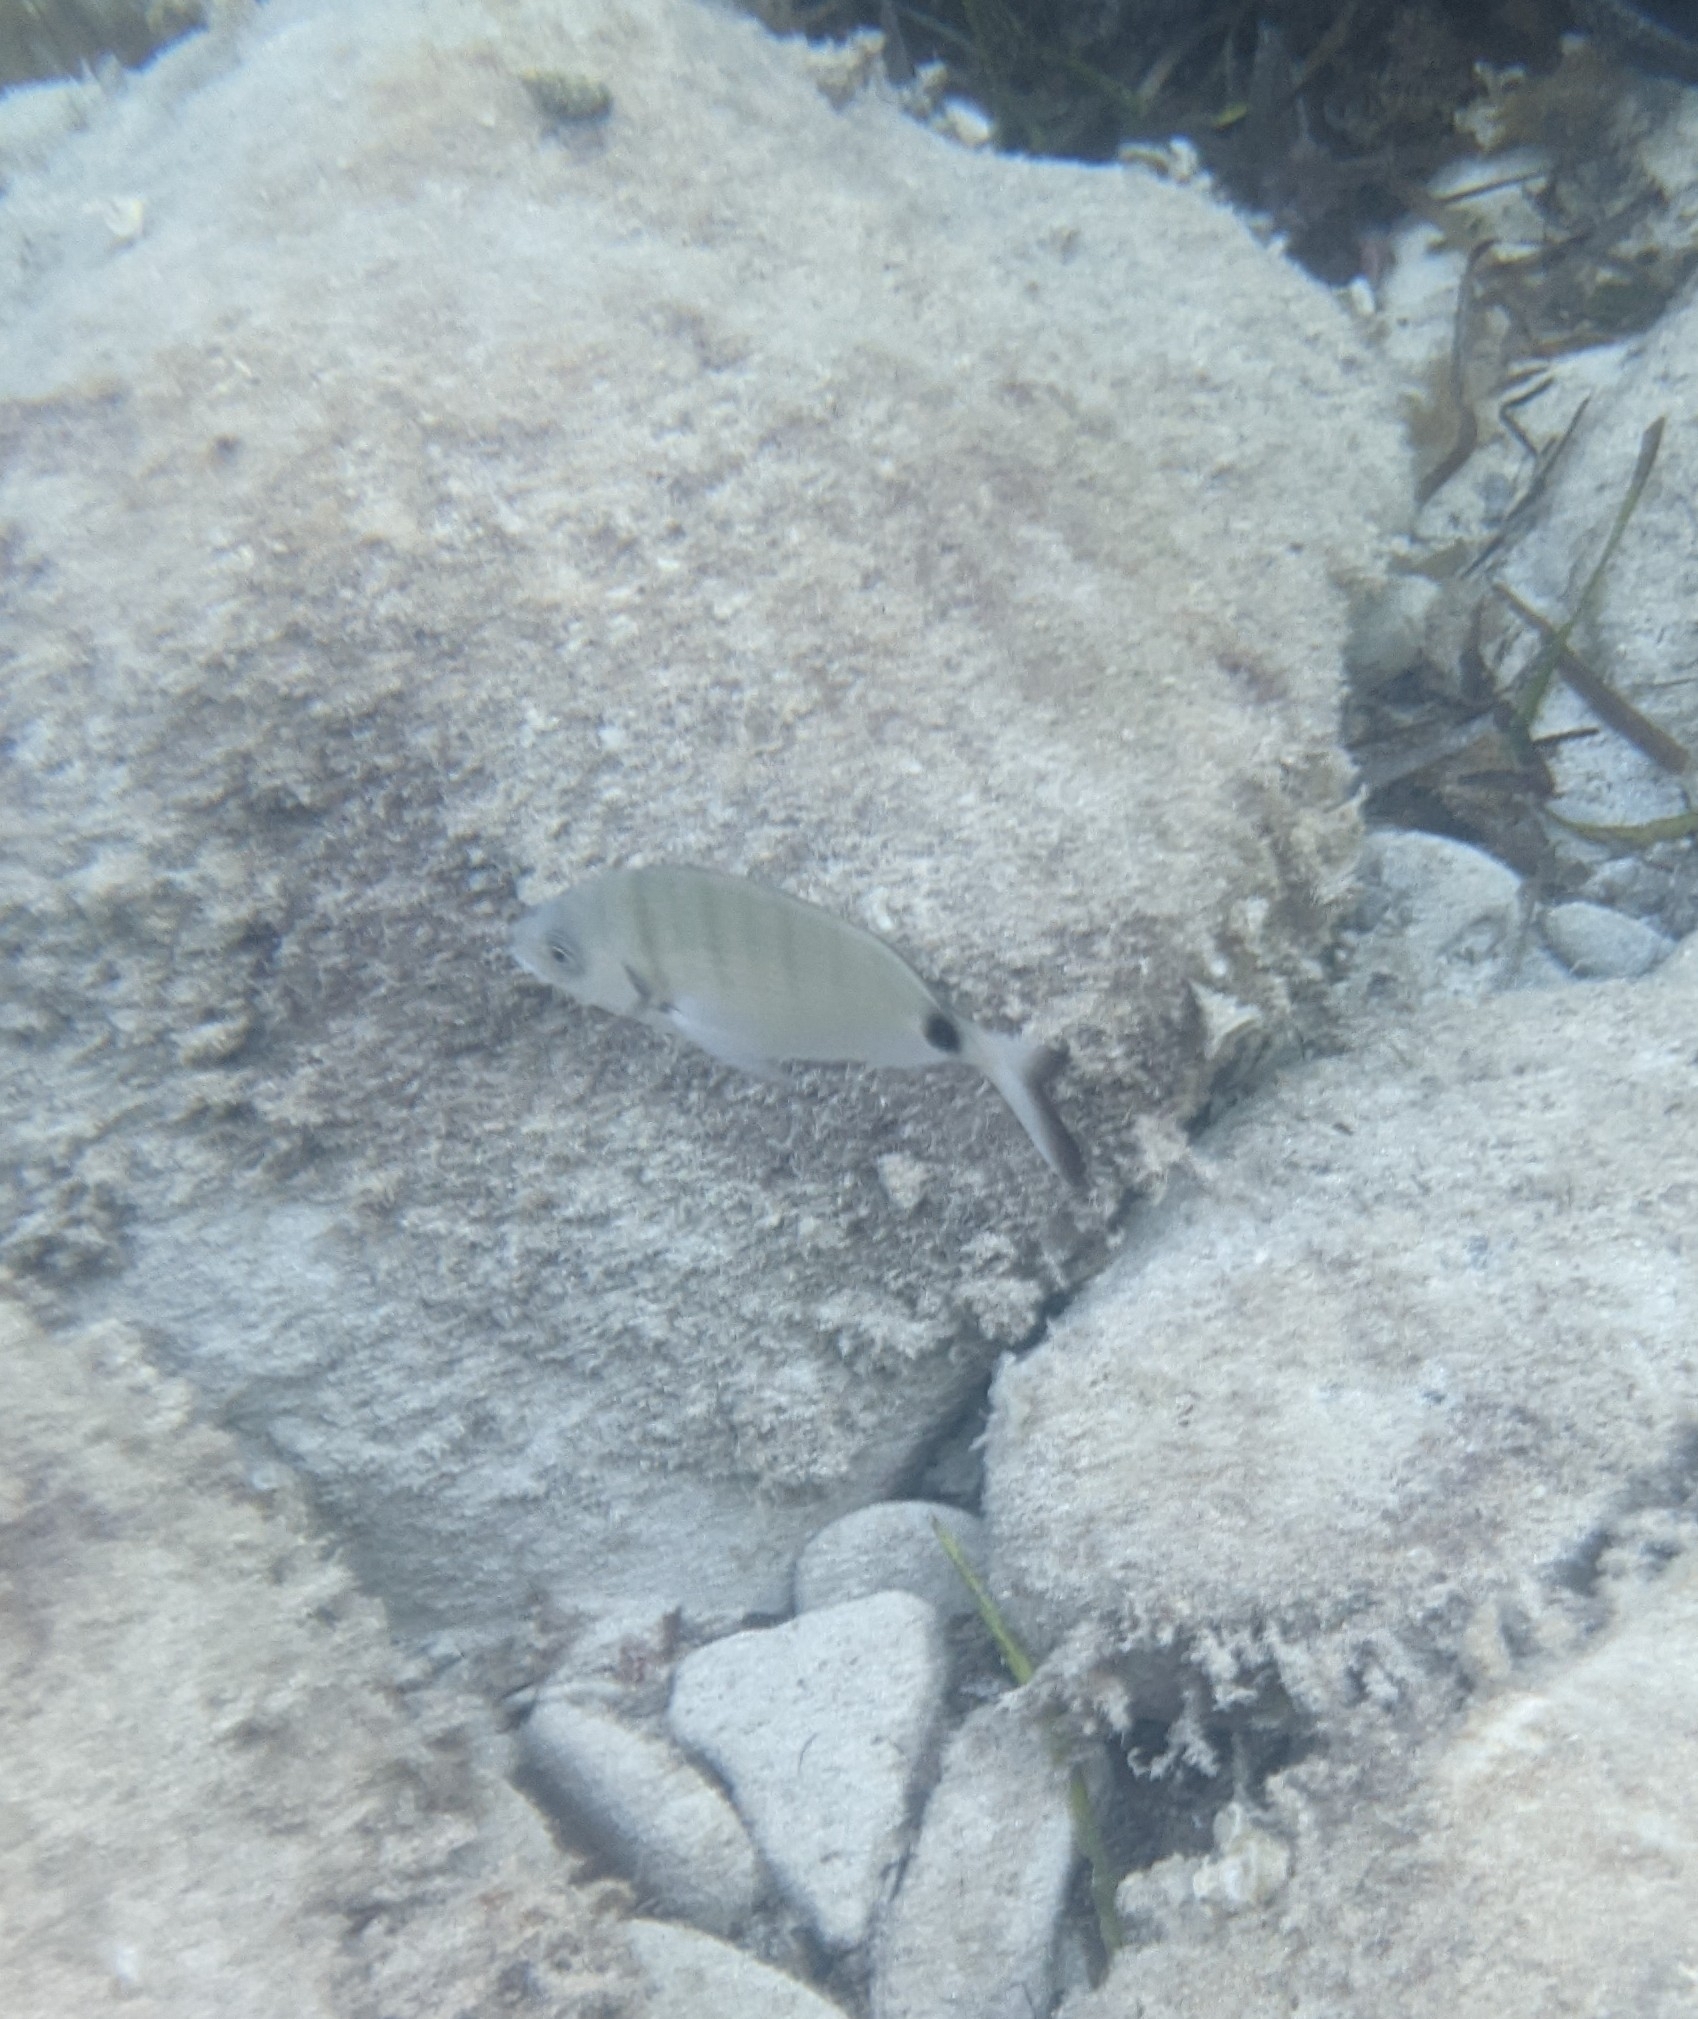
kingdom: Animalia
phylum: Chordata
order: Perciformes
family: Sparidae
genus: Diplodus
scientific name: Diplodus sargus
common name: White seabream
